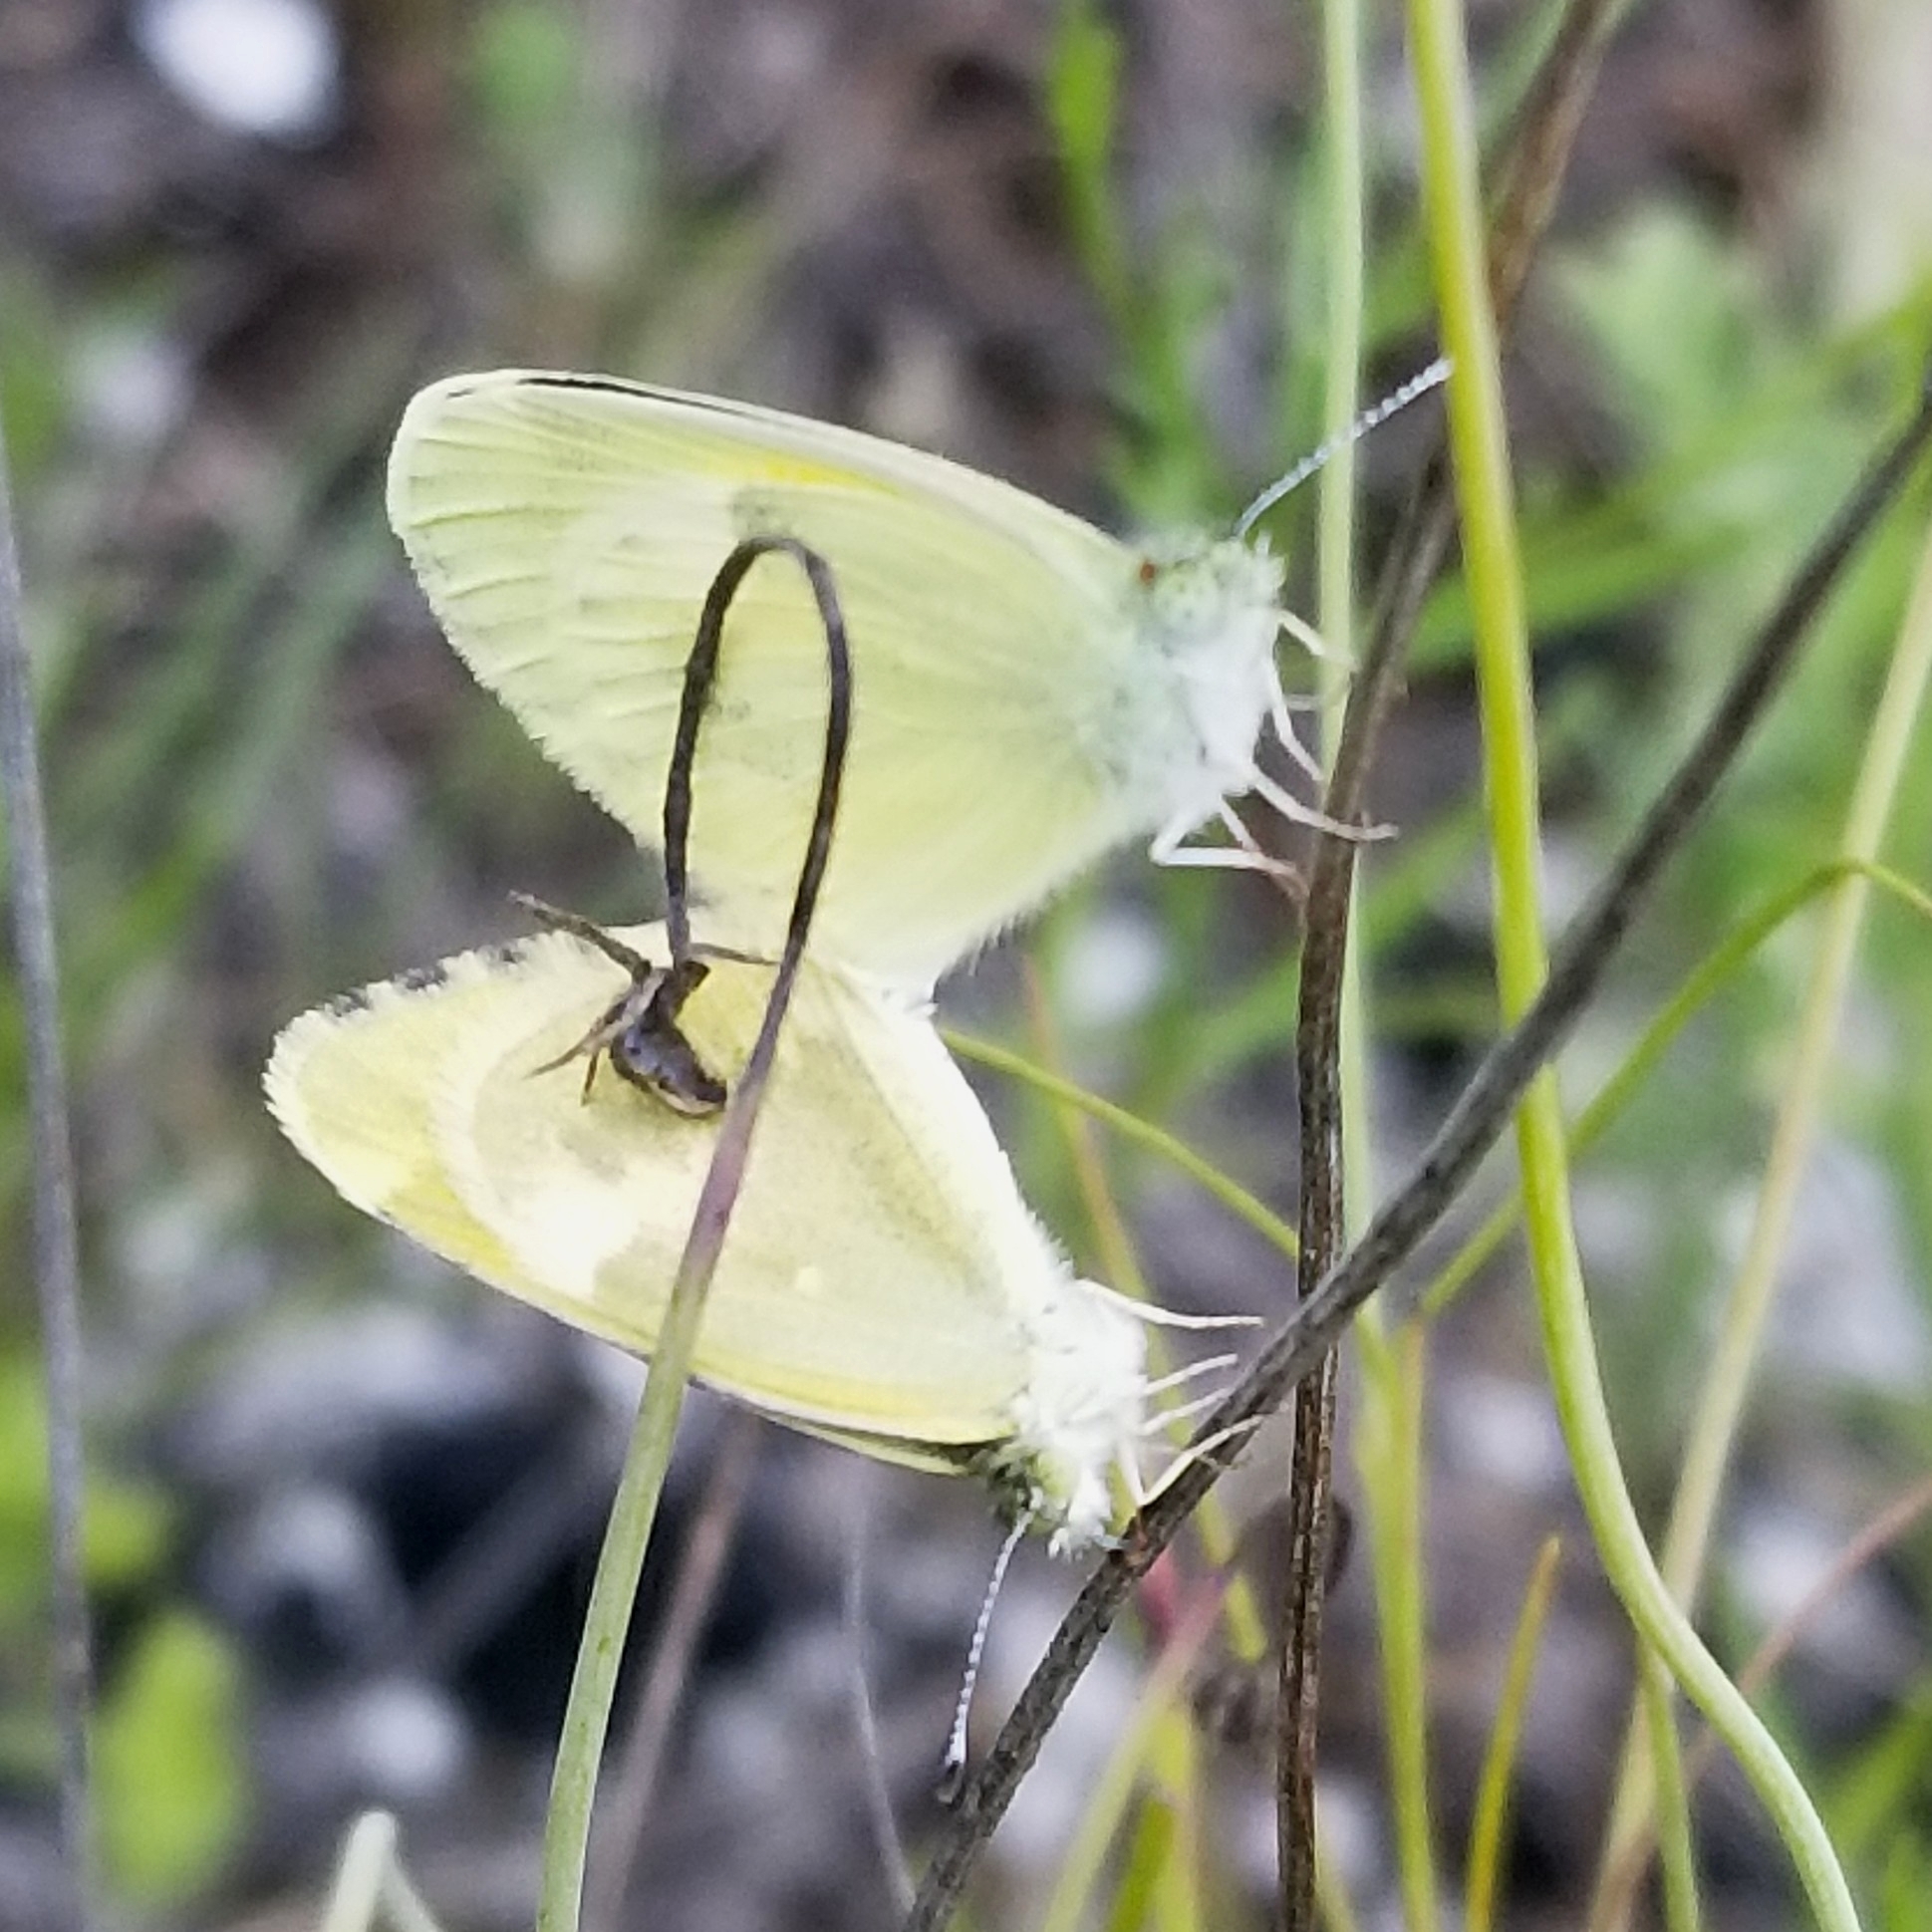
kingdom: Animalia
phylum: Arthropoda
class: Insecta
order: Lepidoptera
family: Pieridae
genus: Nathalis
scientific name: Nathalis iole
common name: Dainty sulphur
